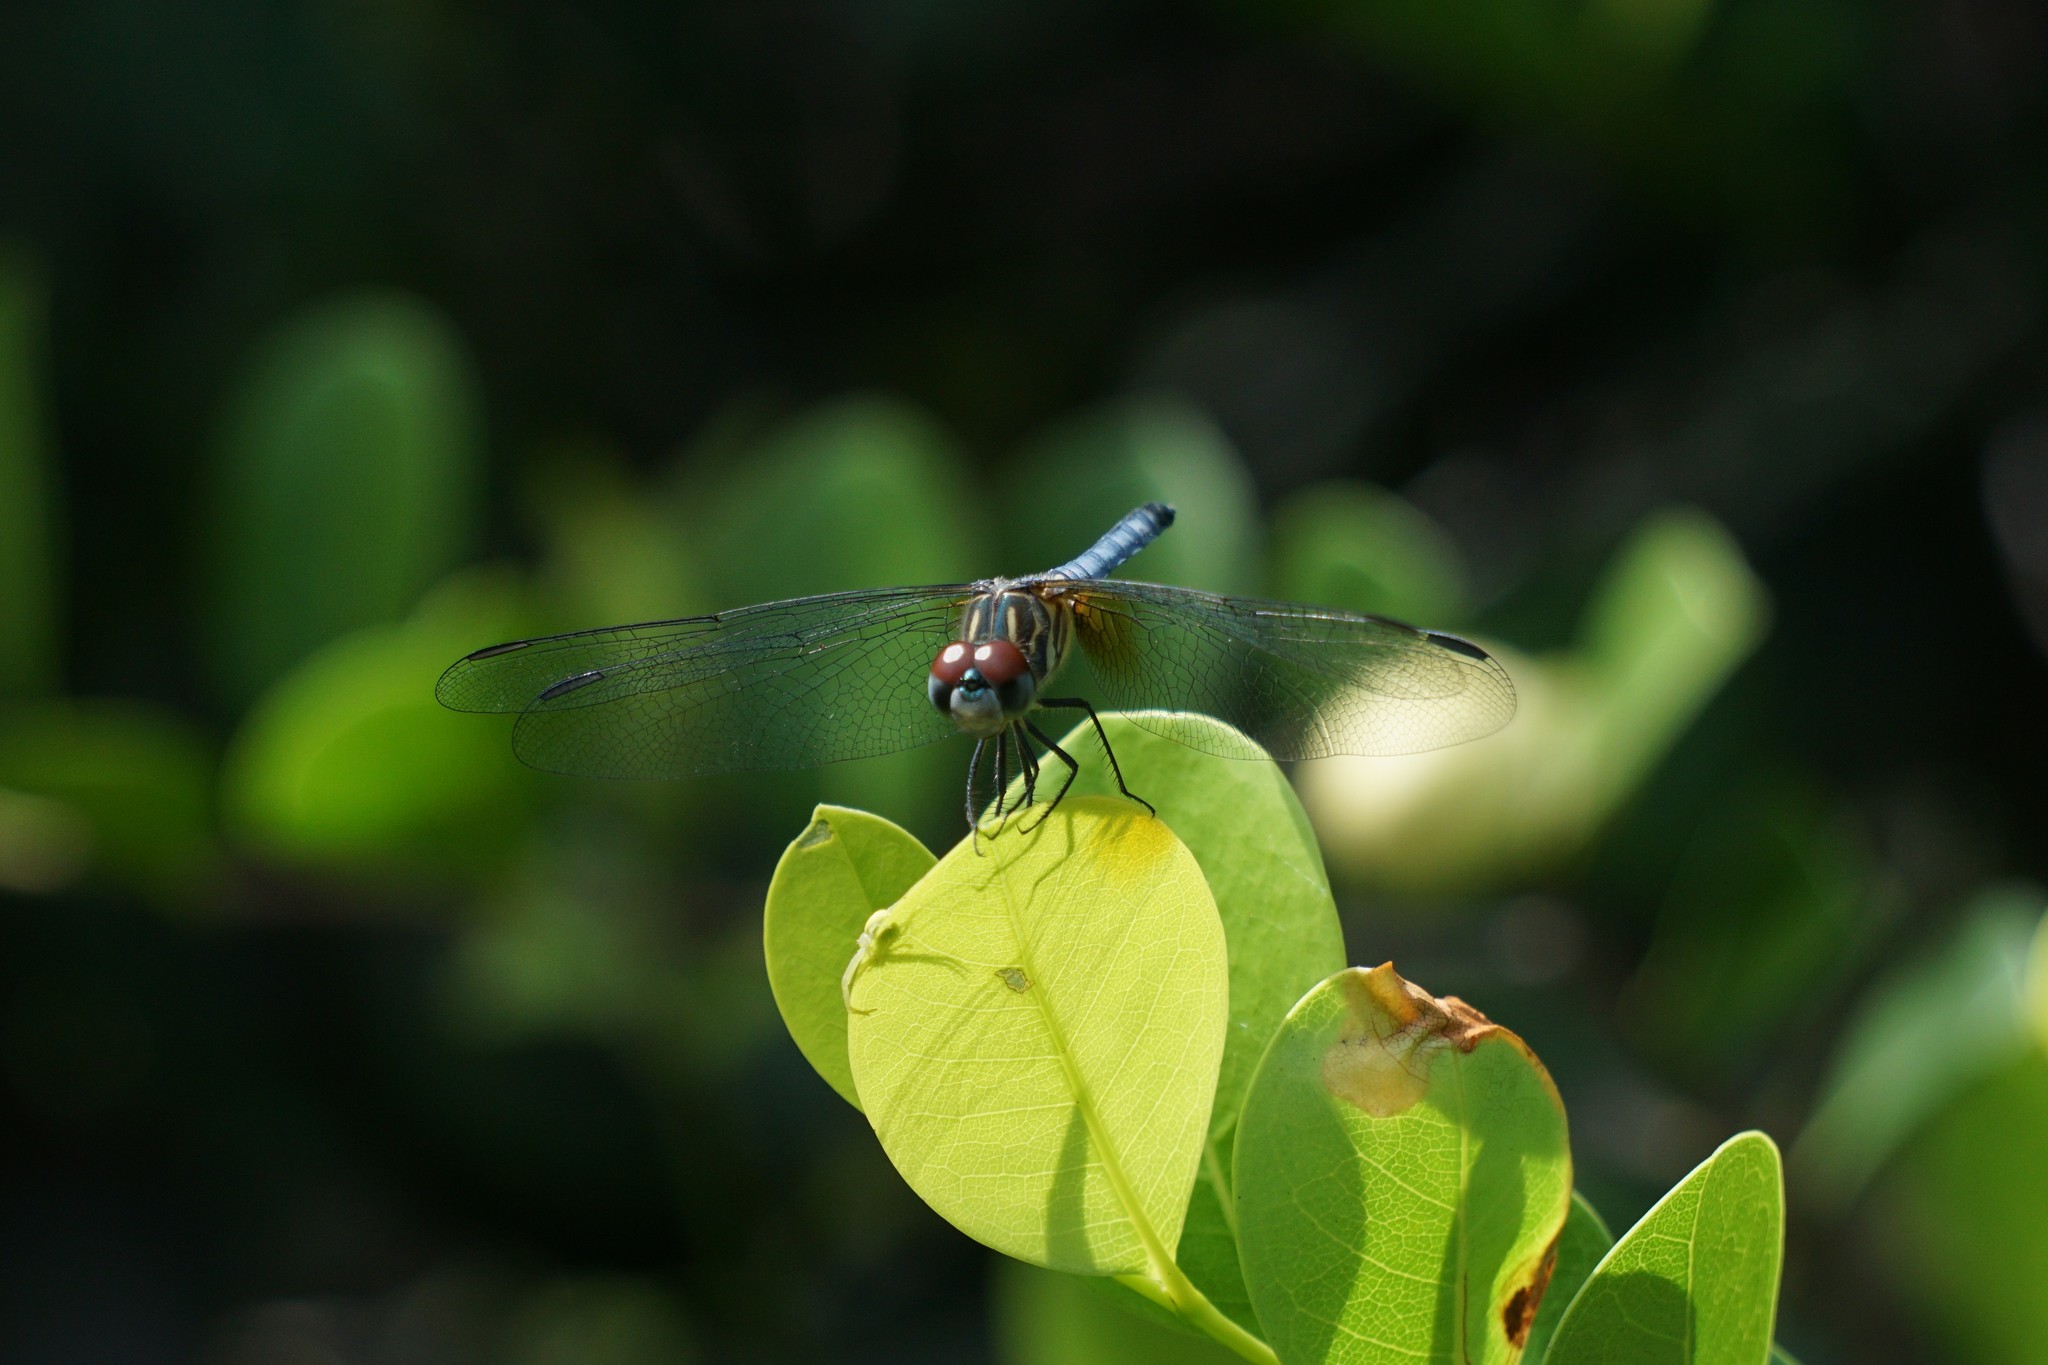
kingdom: Animalia
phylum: Arthropoda
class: Insecta
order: Odonata
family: Libellulidae
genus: Pachydiplax
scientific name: Pachydiplax longipennis
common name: Blue dasher
